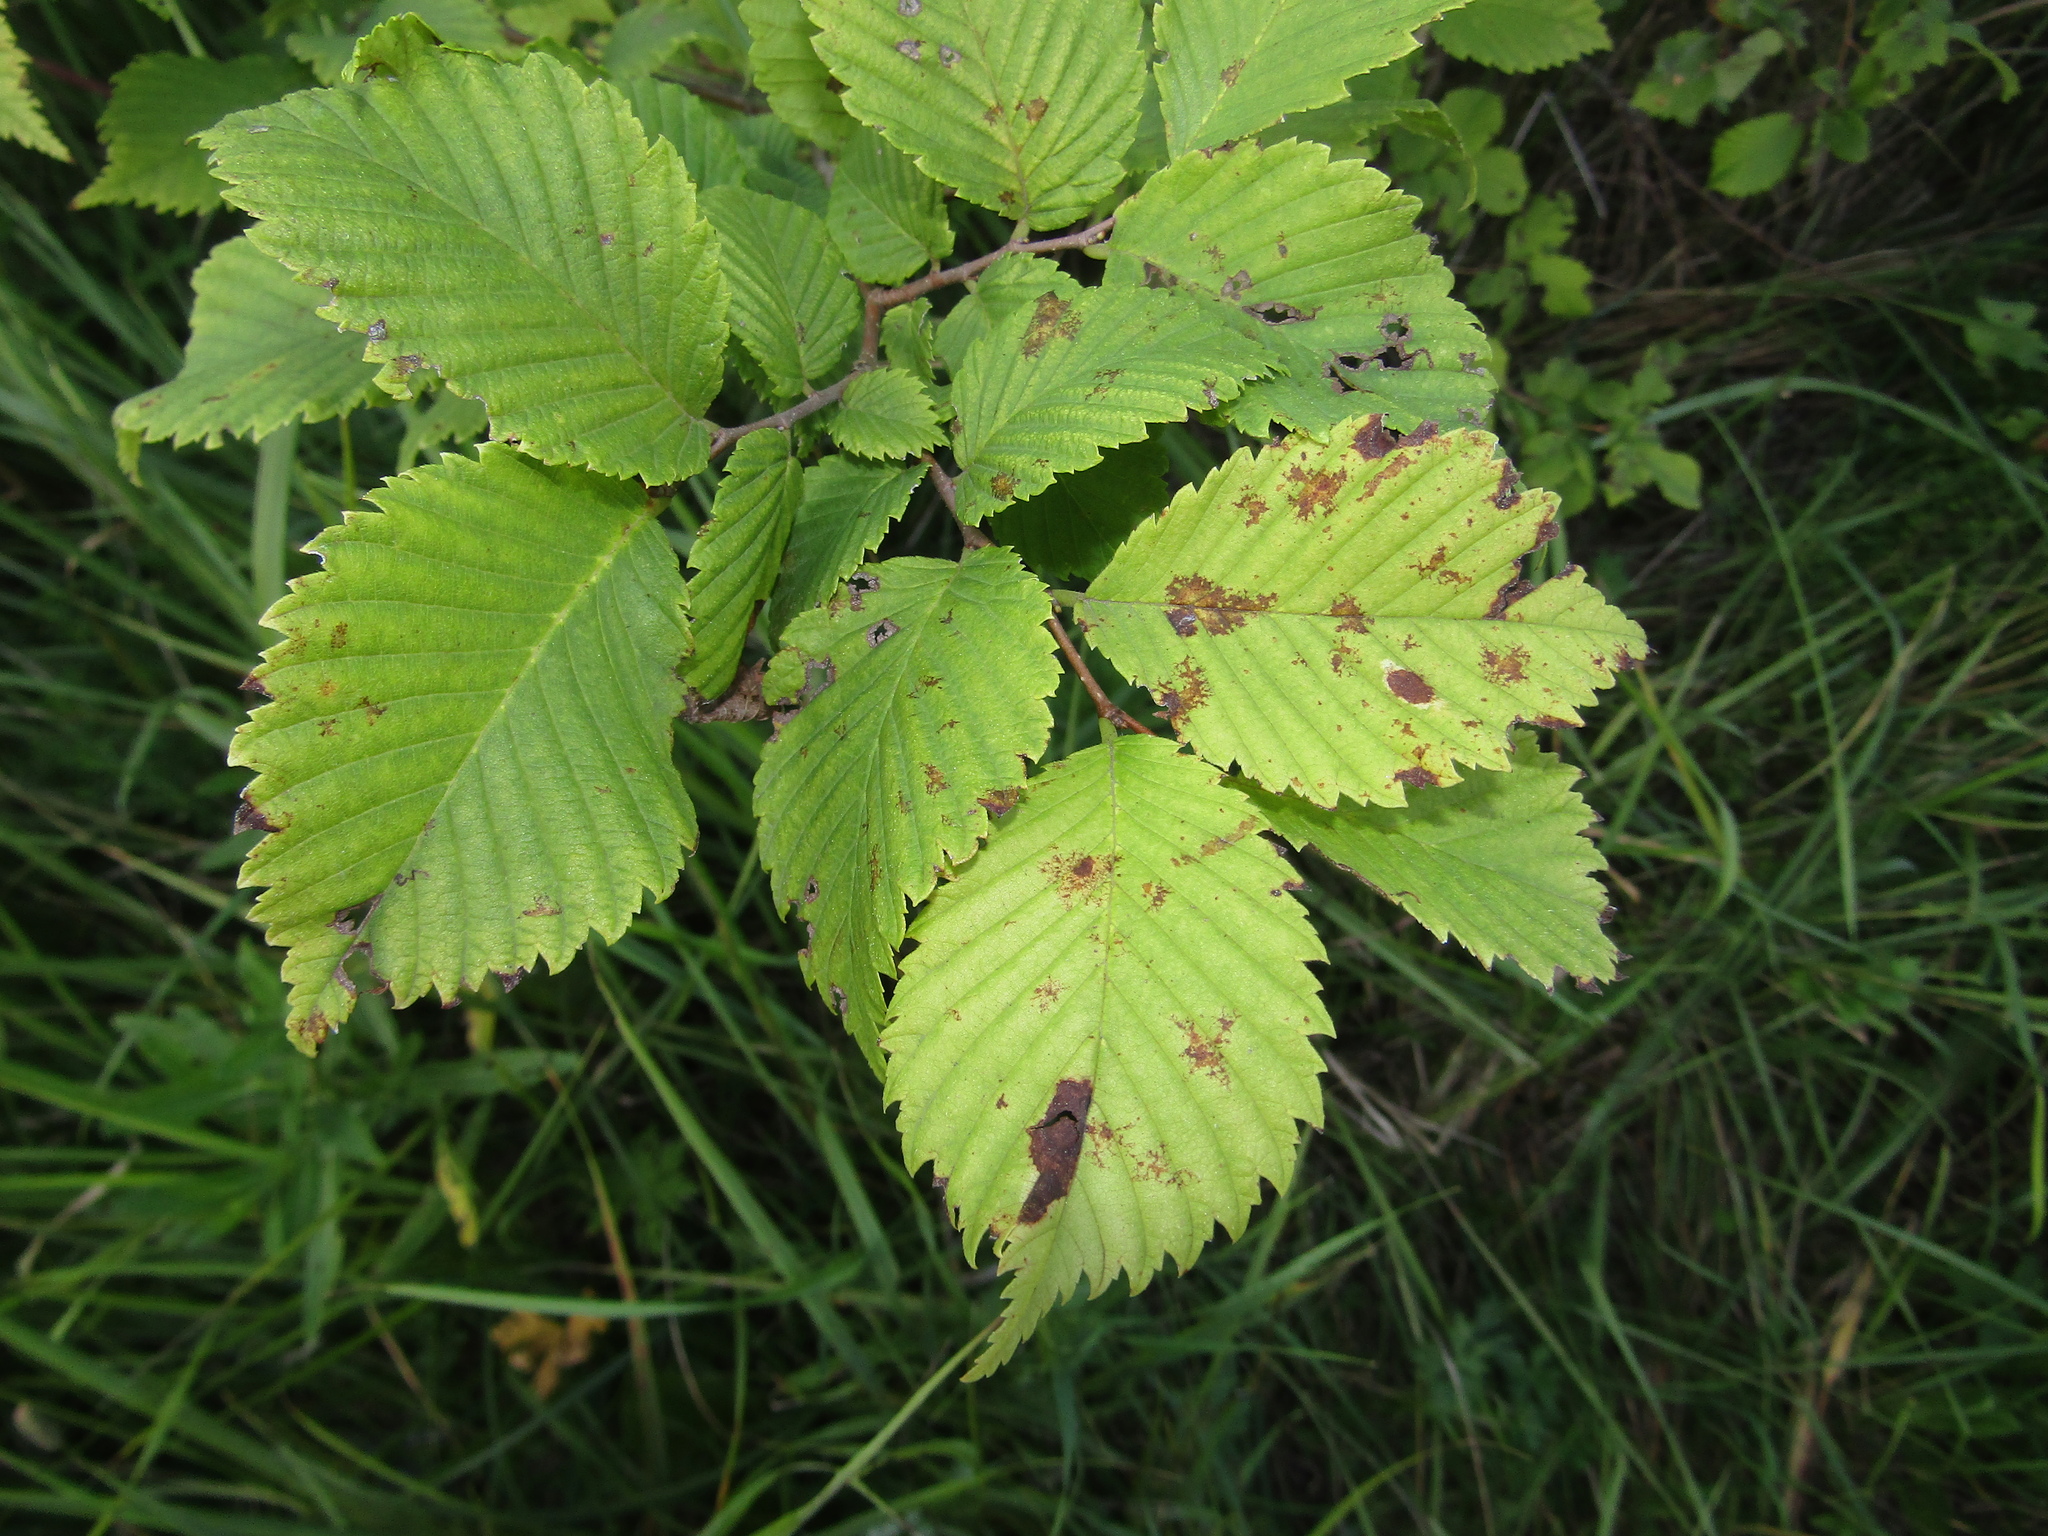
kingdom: Plantae
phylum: Tracheophyta
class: Magnoliopsida
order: Rosales
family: Ulmaceae
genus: Ulmus
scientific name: Ulmus laevis
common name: European white-elm
